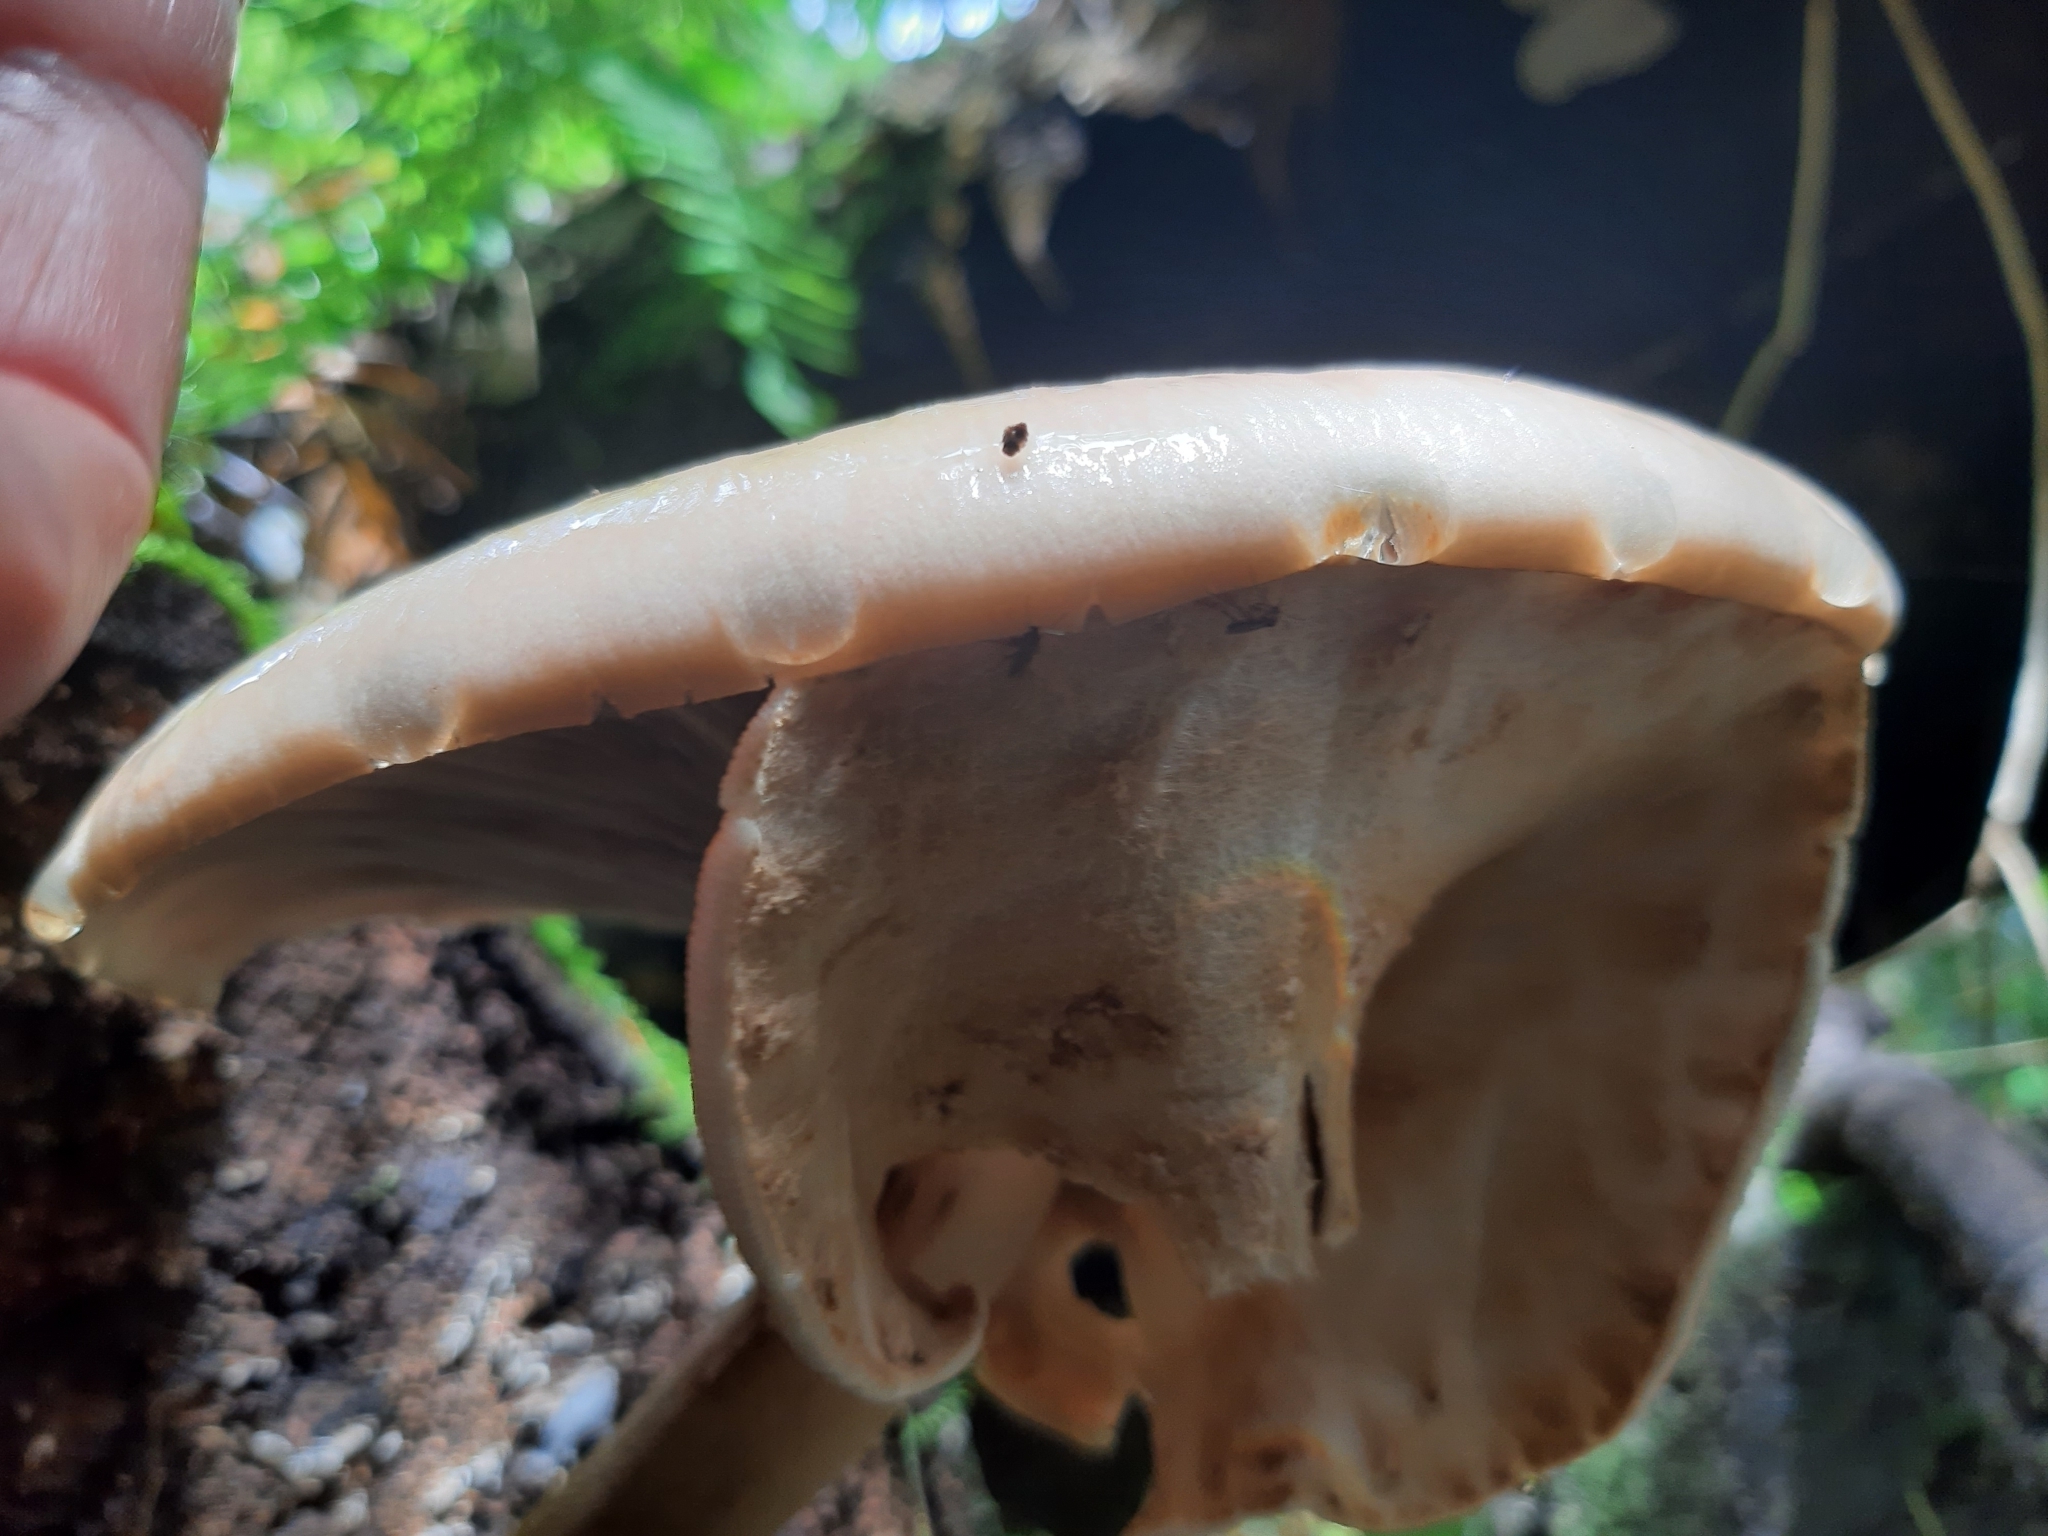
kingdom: Fungi
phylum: Basidiomycota
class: Agaricomycetes
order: Agaricales
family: Tubariaceae
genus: Cyclocybe
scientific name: Cyclocybe parasitica
